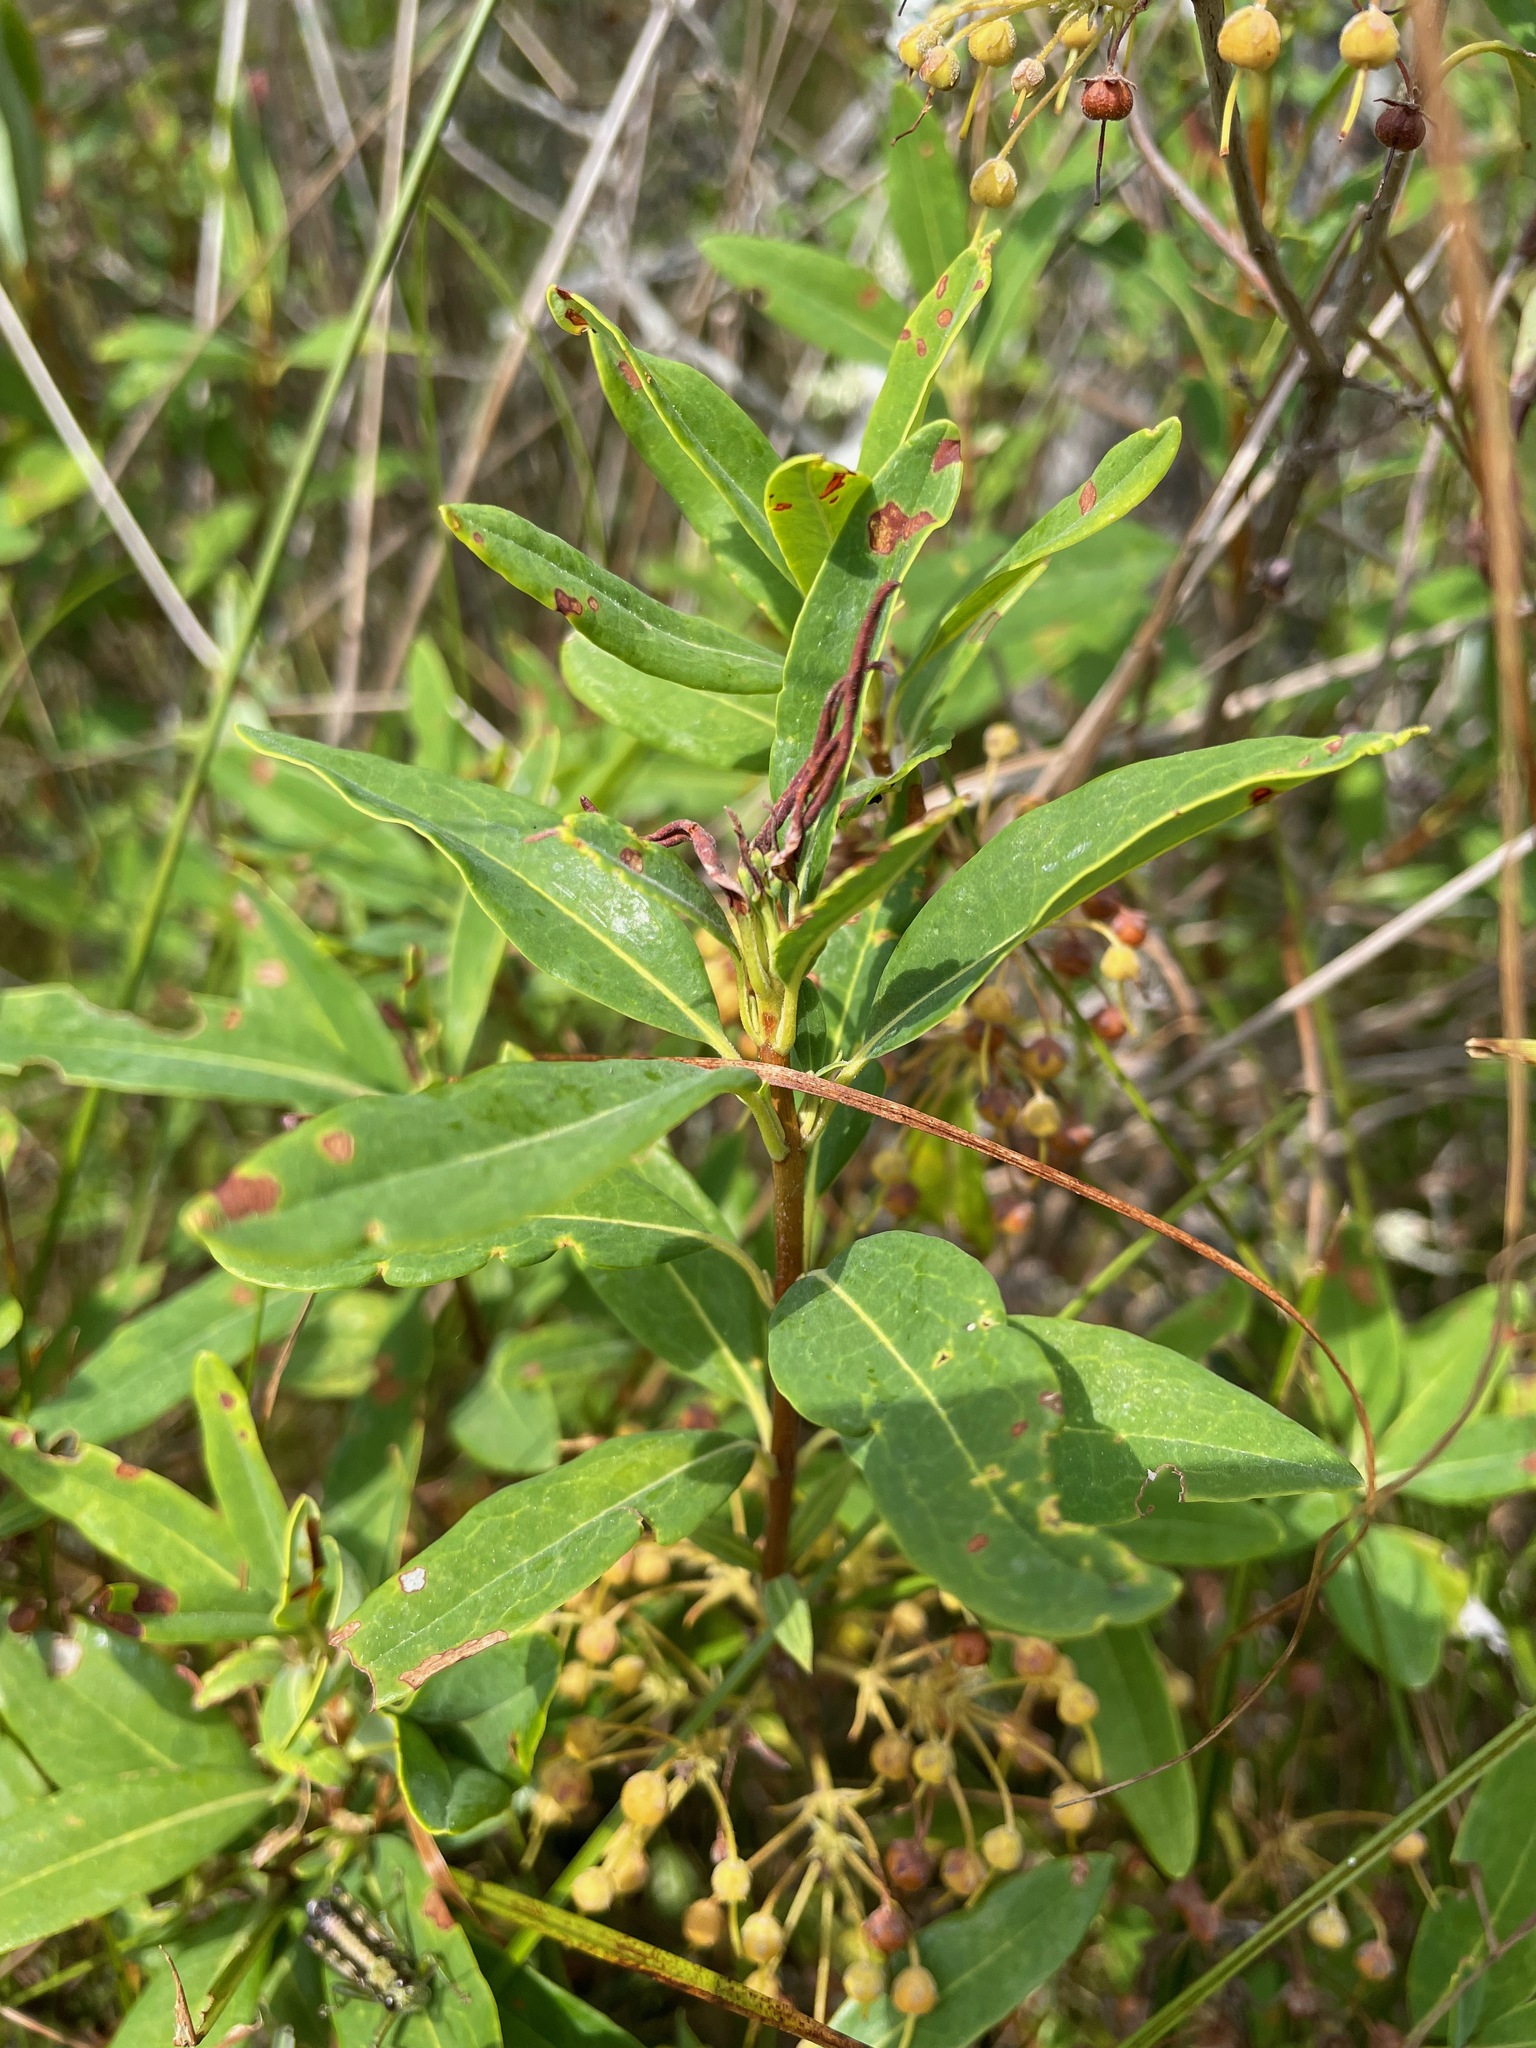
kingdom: Plantae
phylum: Tracheophyta
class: Magnoliopsida
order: Ericales
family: Ericaceae
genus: Kalmia
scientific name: Kalmia angustifolia
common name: Sheep-laurel
